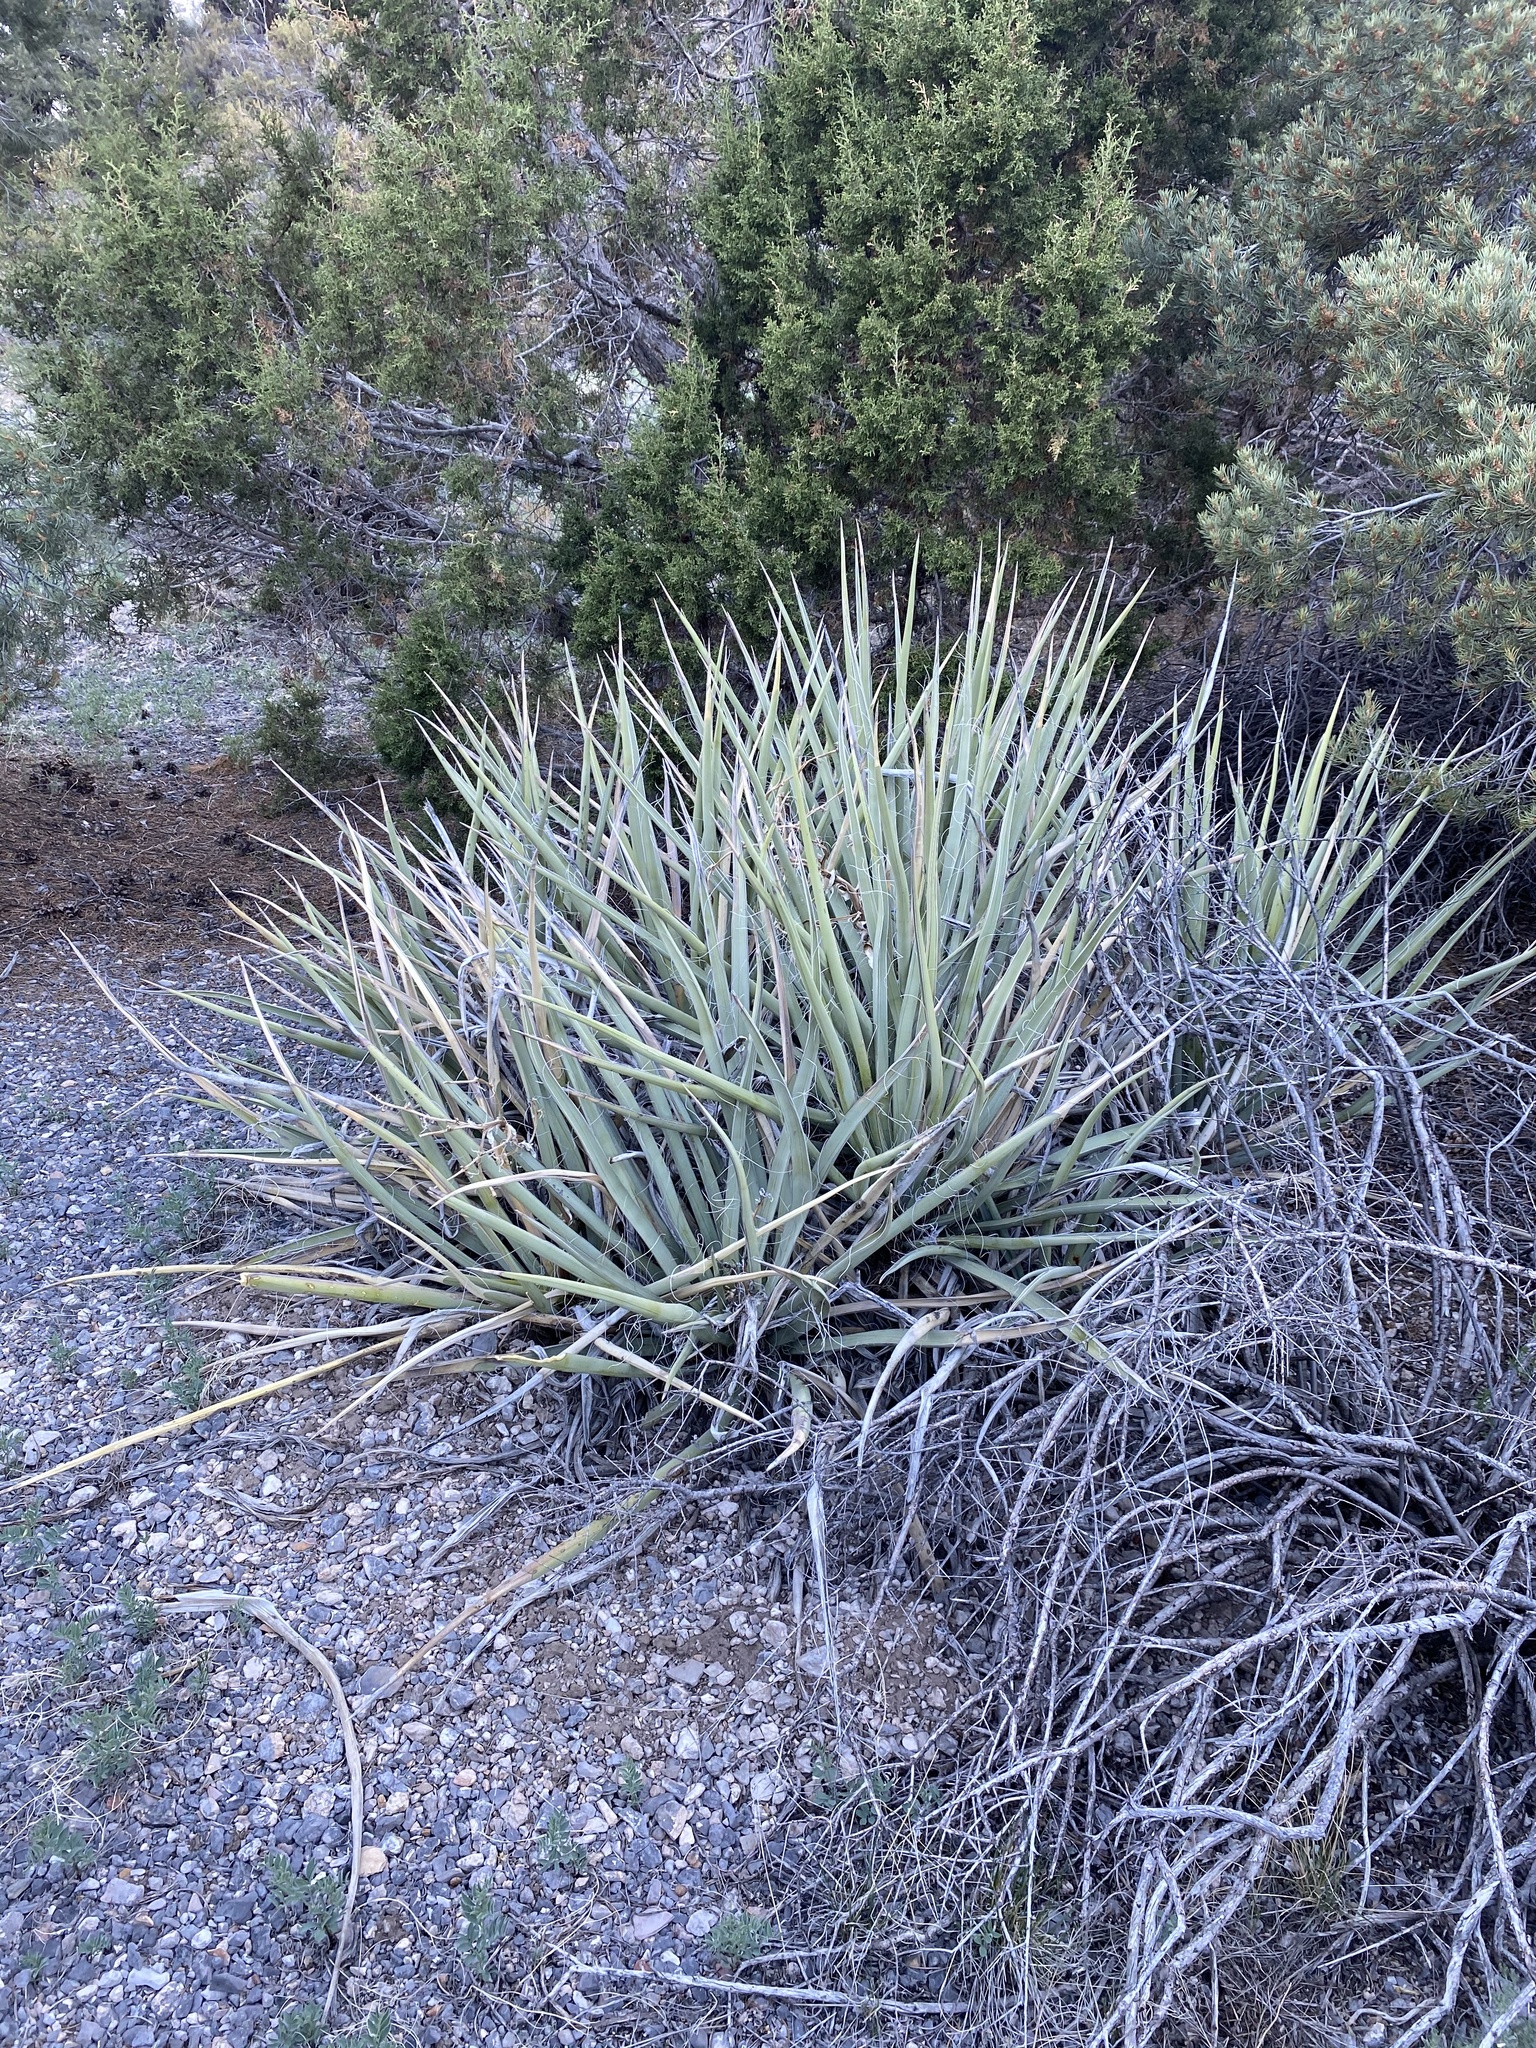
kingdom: Plantae
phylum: Tracheophyta
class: Liliopsida
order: Asparagales
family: Asparagaceae
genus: Yucca
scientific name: Yucca baccata
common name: Banana yucca
